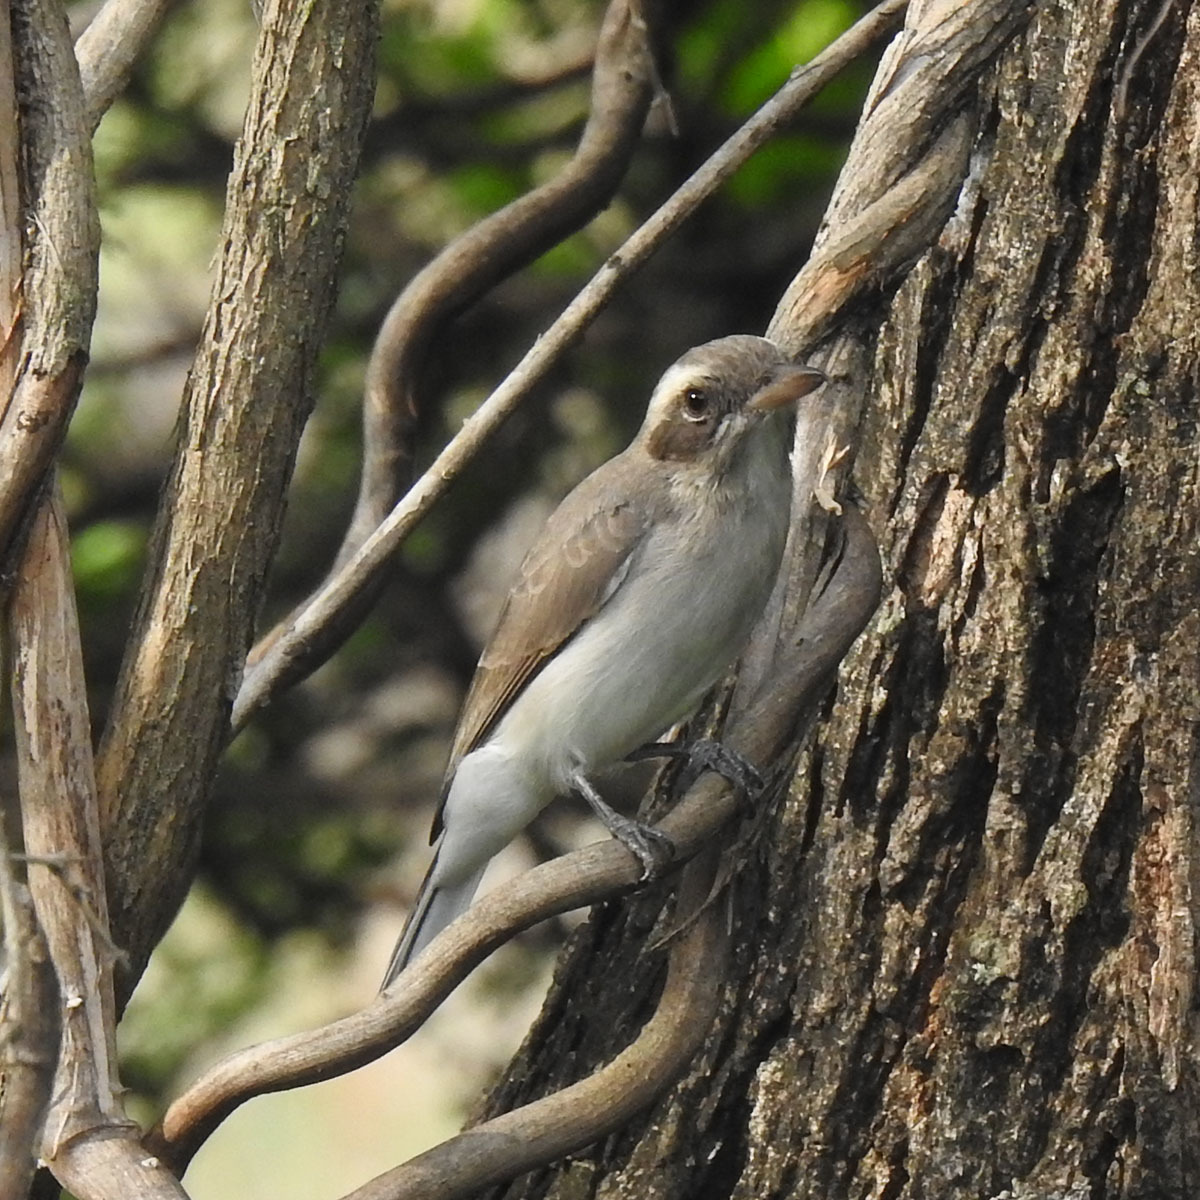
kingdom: Animalia
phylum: Chordata
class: Aves
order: Passeriformes
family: Tephrodornithidae
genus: Tephrodornis
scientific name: Tephrodornis pondicerianus
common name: Common woodshrike
